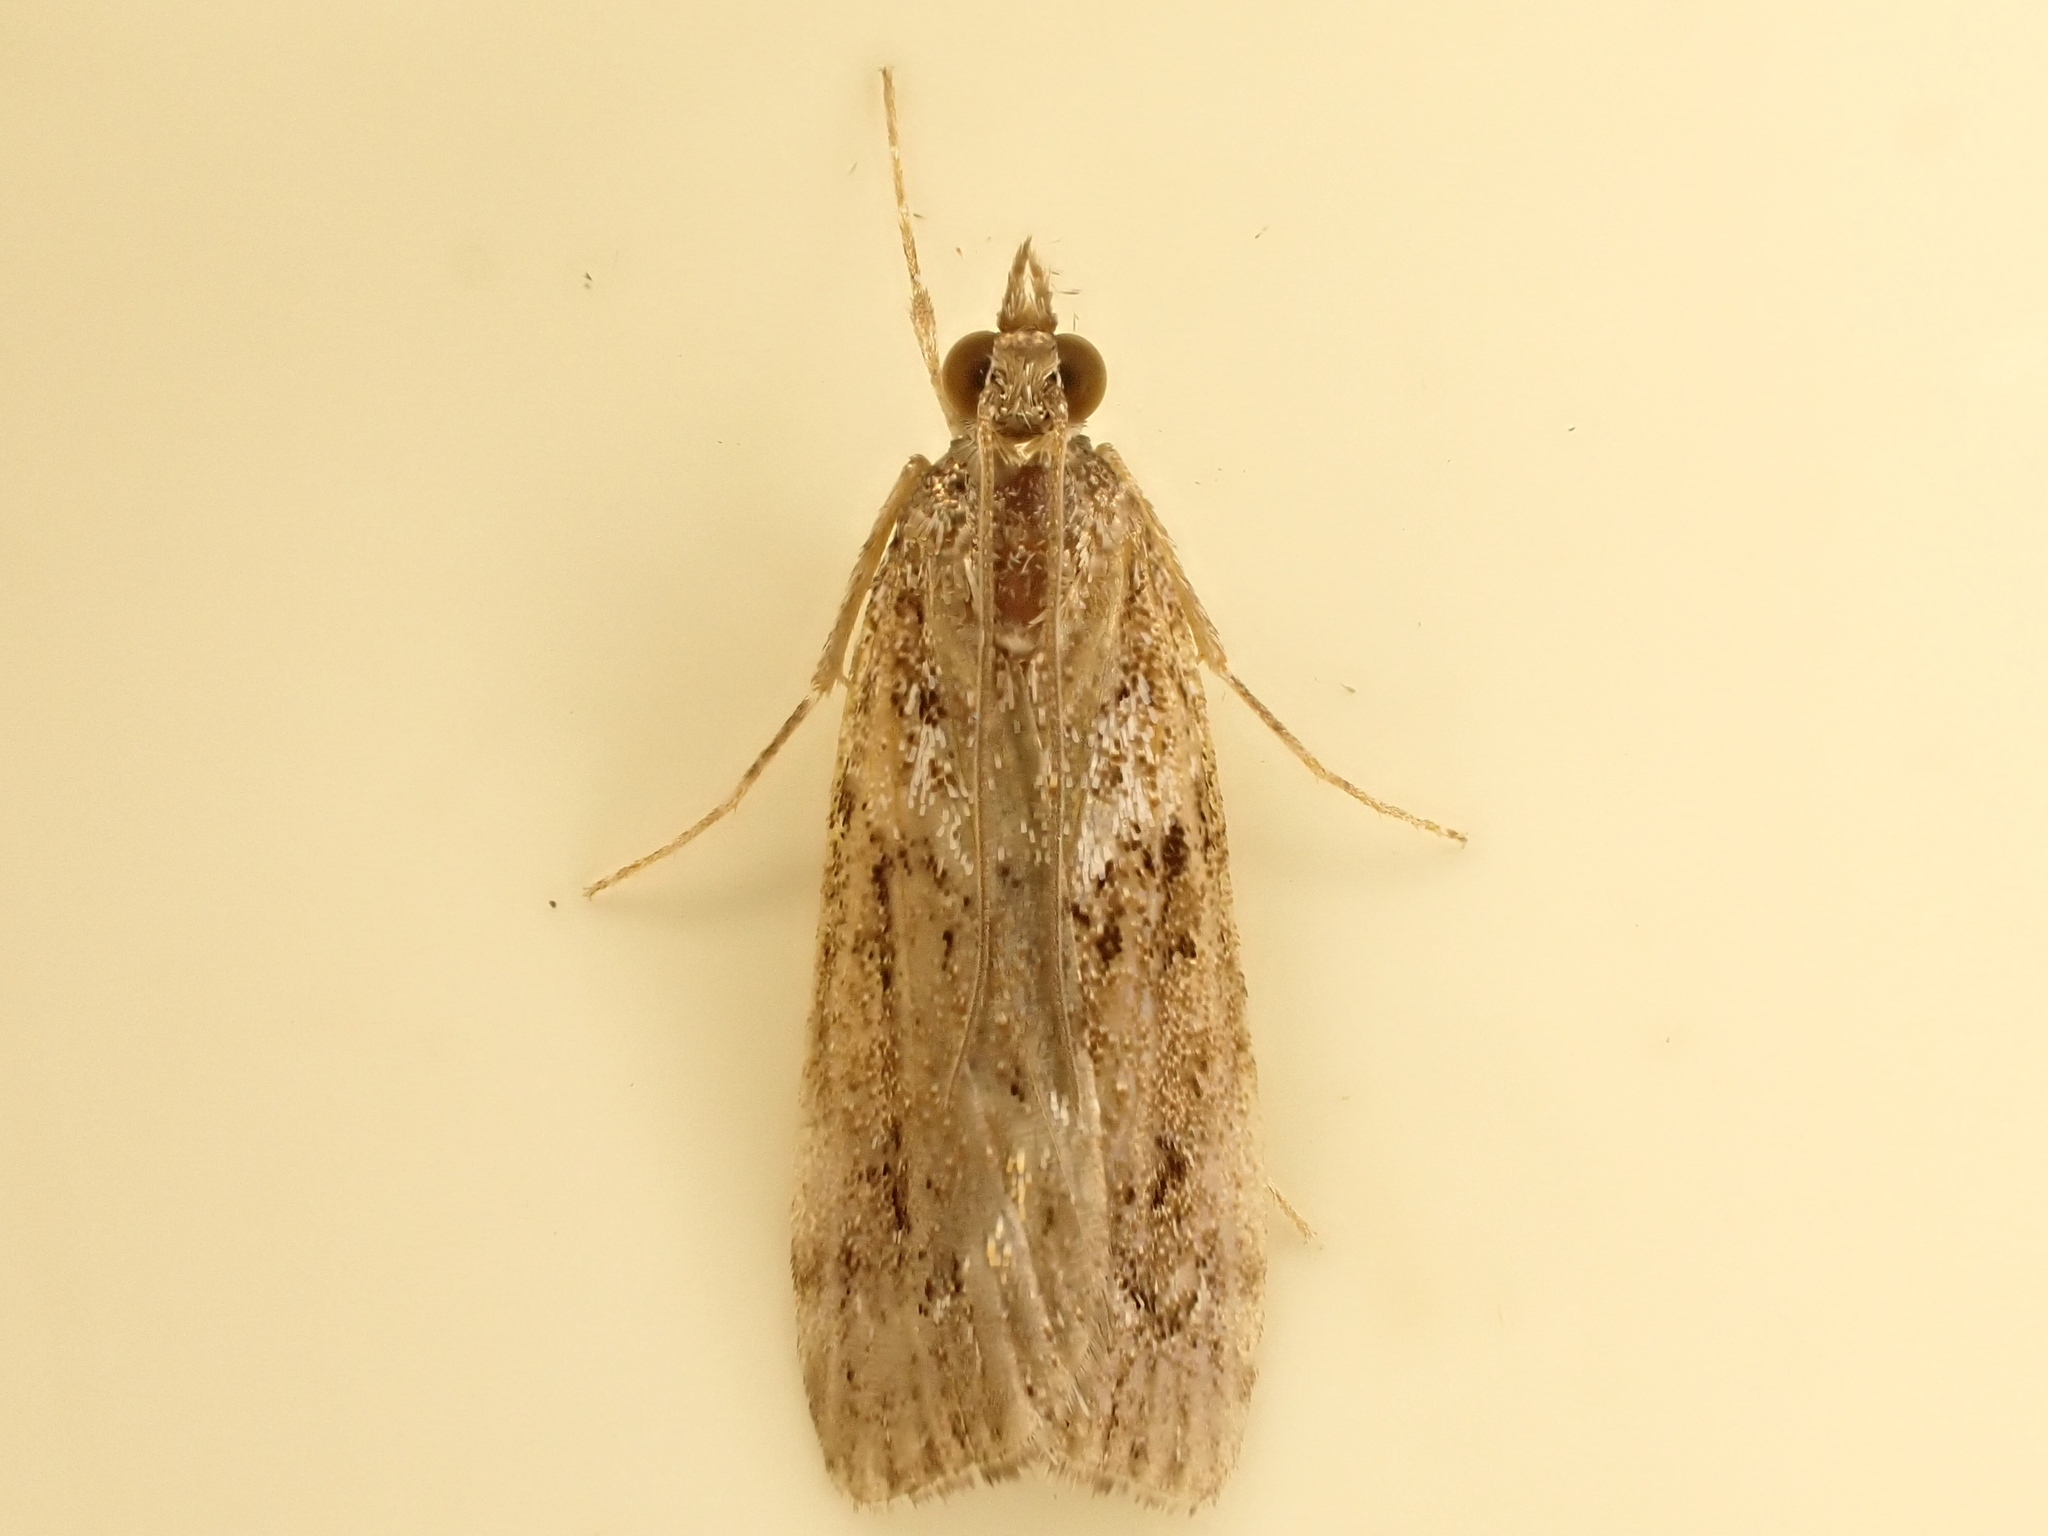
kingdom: Animalia
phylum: Arthropoda
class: Insecta
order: Lepidoptera
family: Crambidae
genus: Eudonia
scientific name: Eudonia submarginalis
